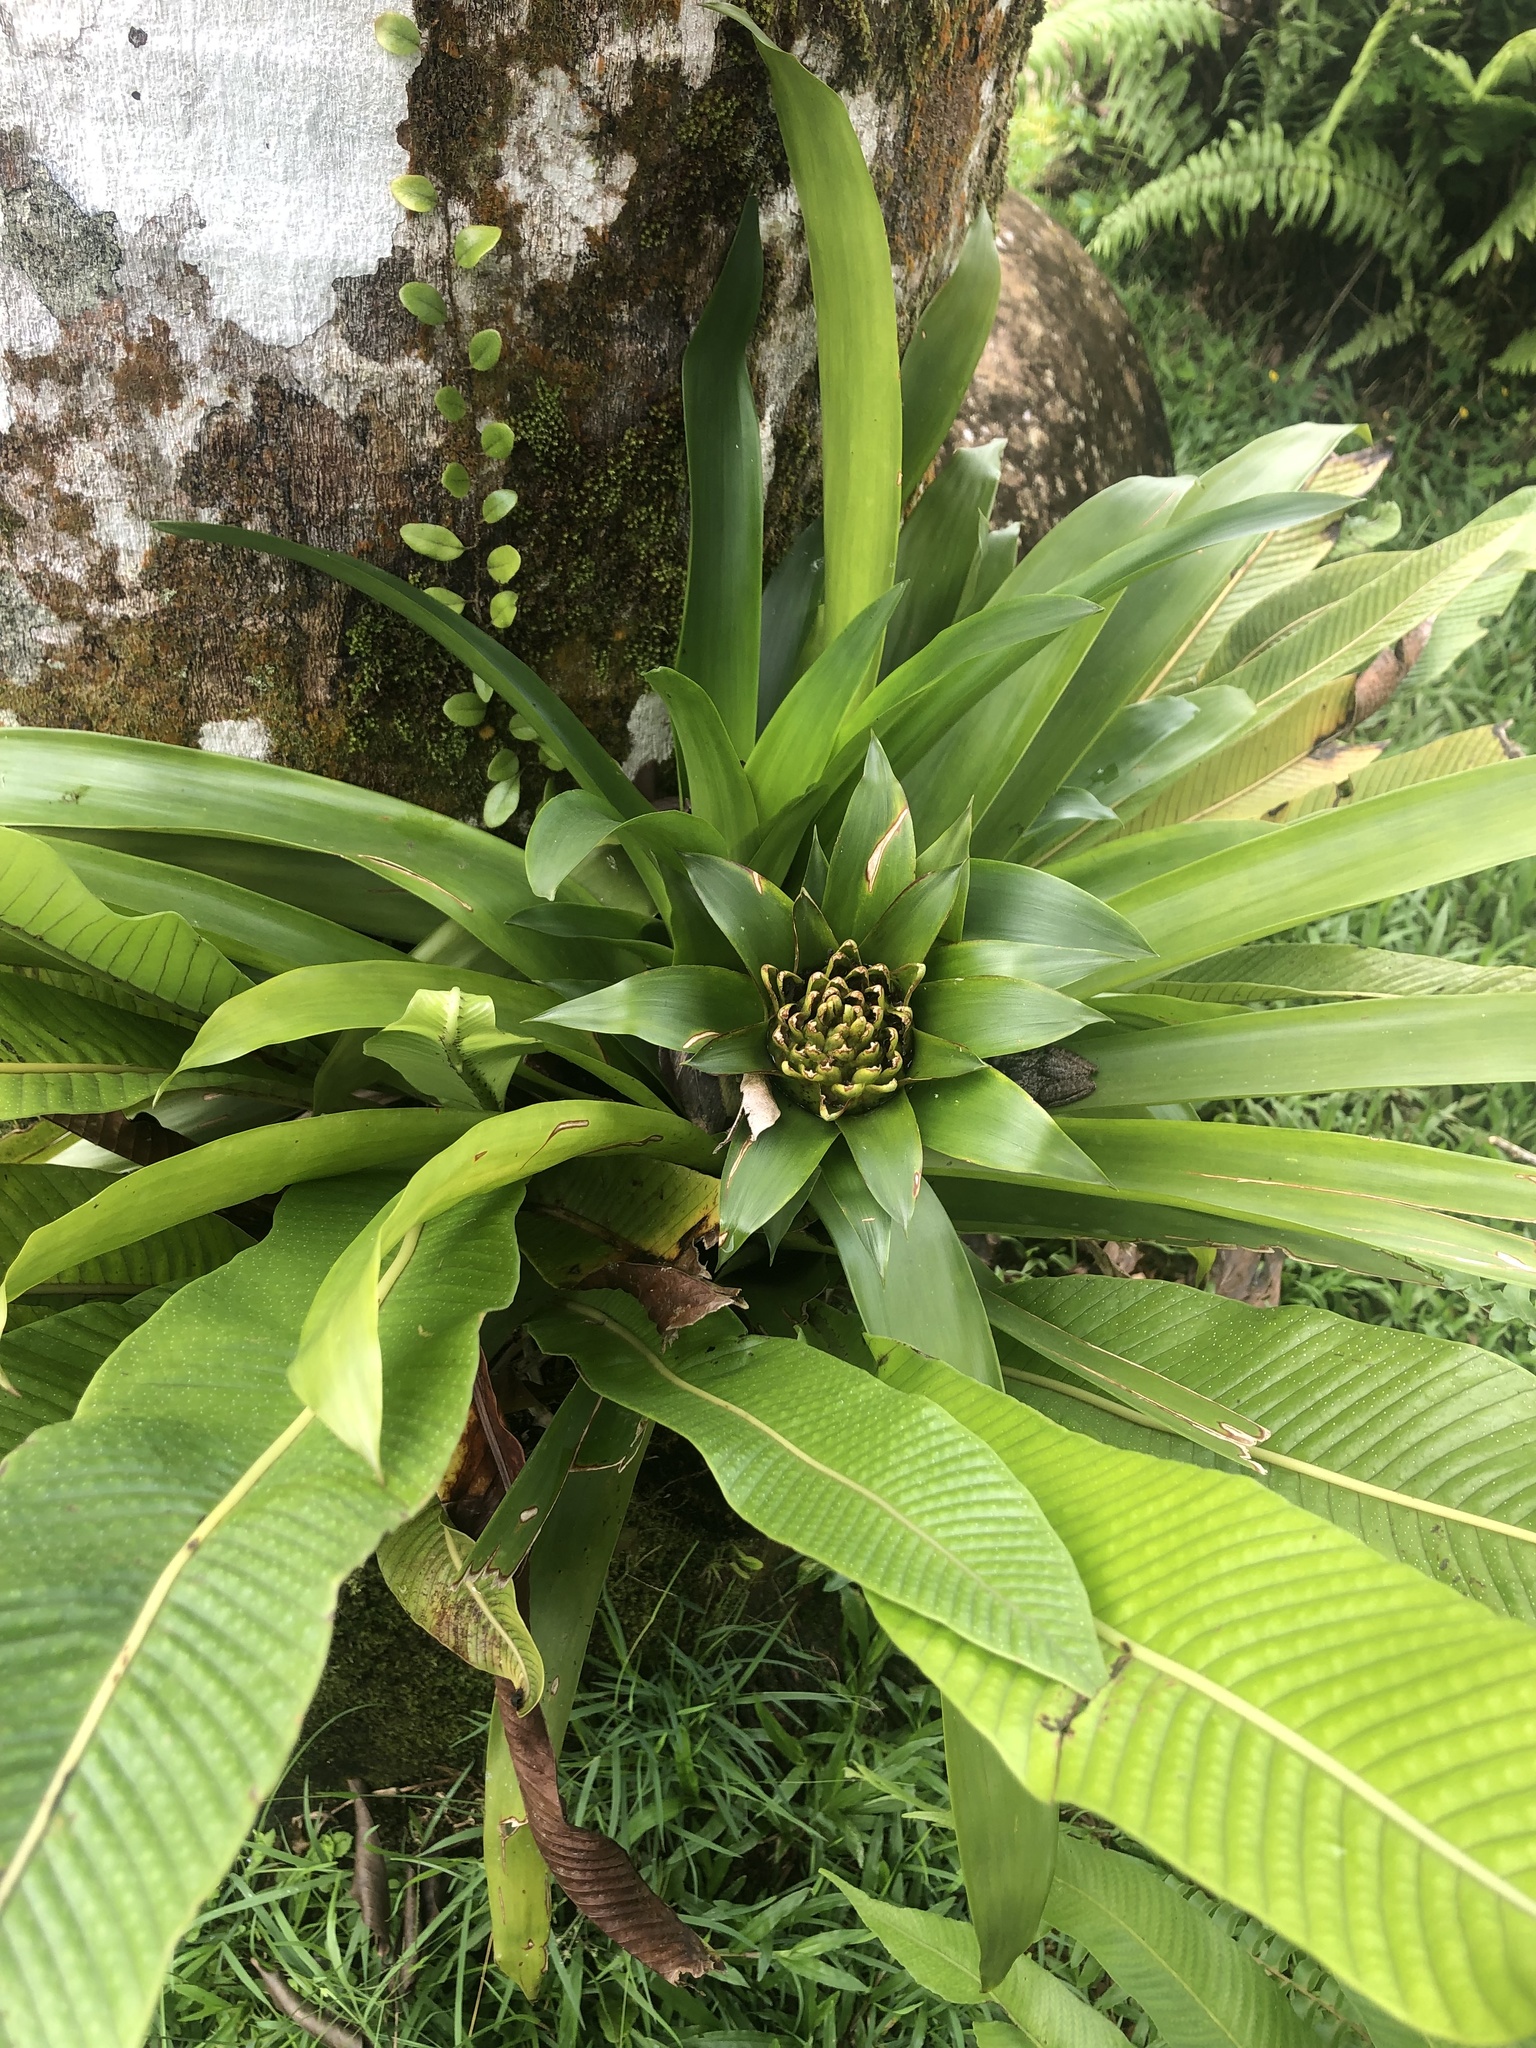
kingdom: Plantae
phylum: Tracheophyta
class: Liliopsida
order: Poales
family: Bromeliaceae
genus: Guzmania
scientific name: Guzmania lingulata
